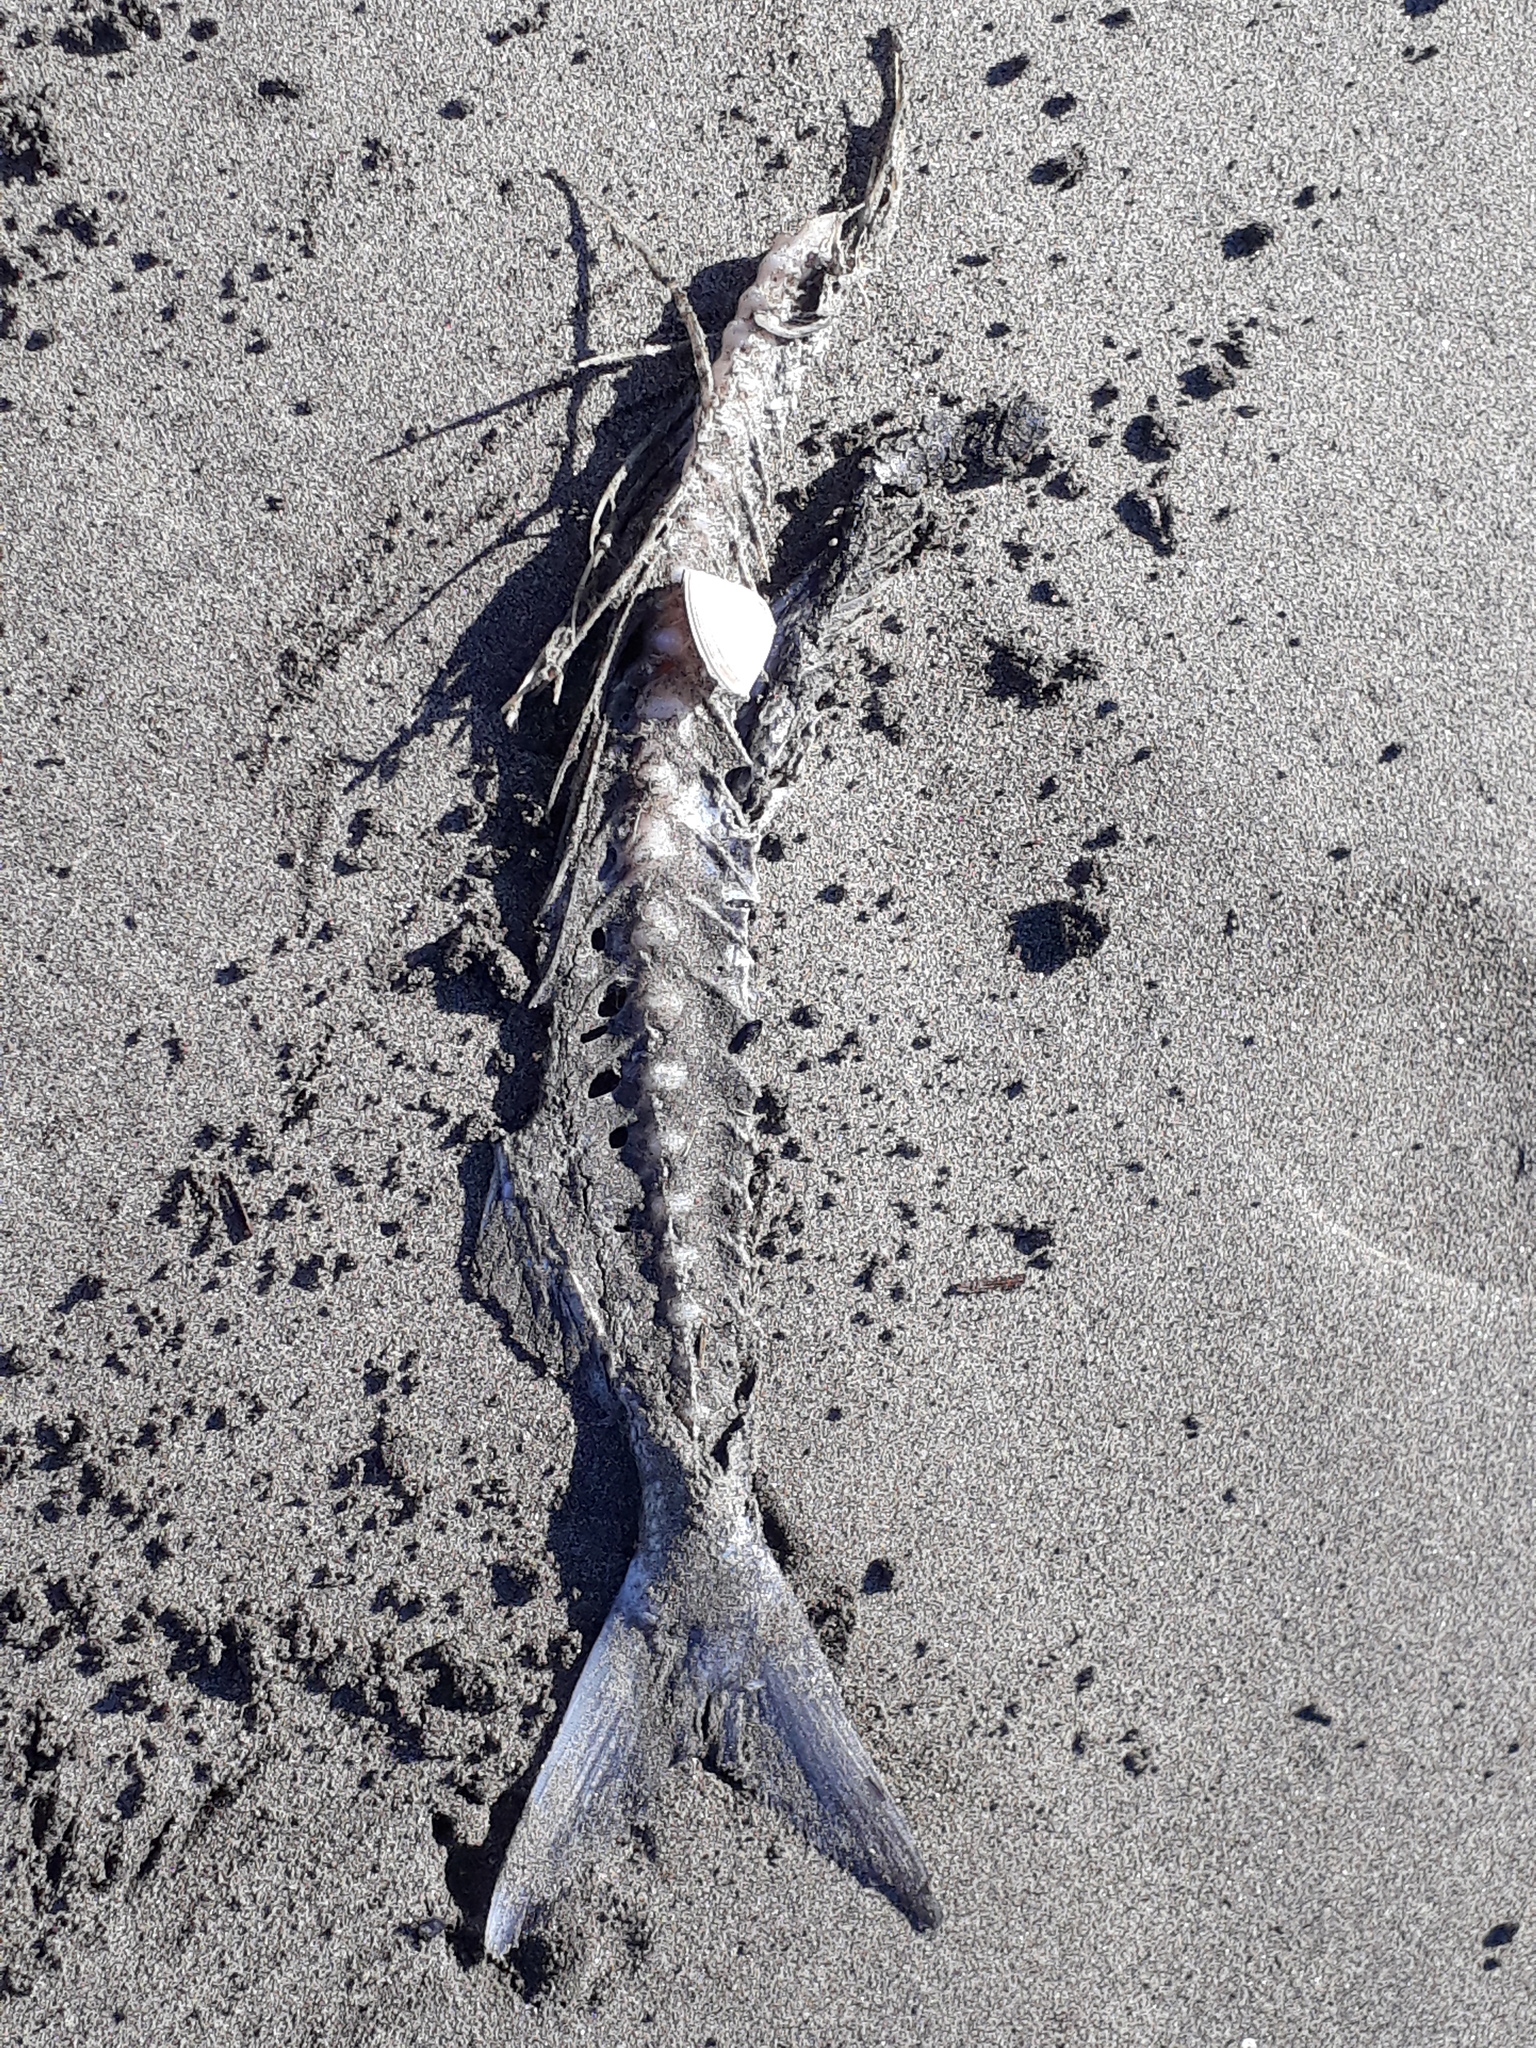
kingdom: Animalia
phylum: Chordata
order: Perciformes
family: Arripidae
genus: Arripis
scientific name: Arripis trutta
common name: Kahawai
